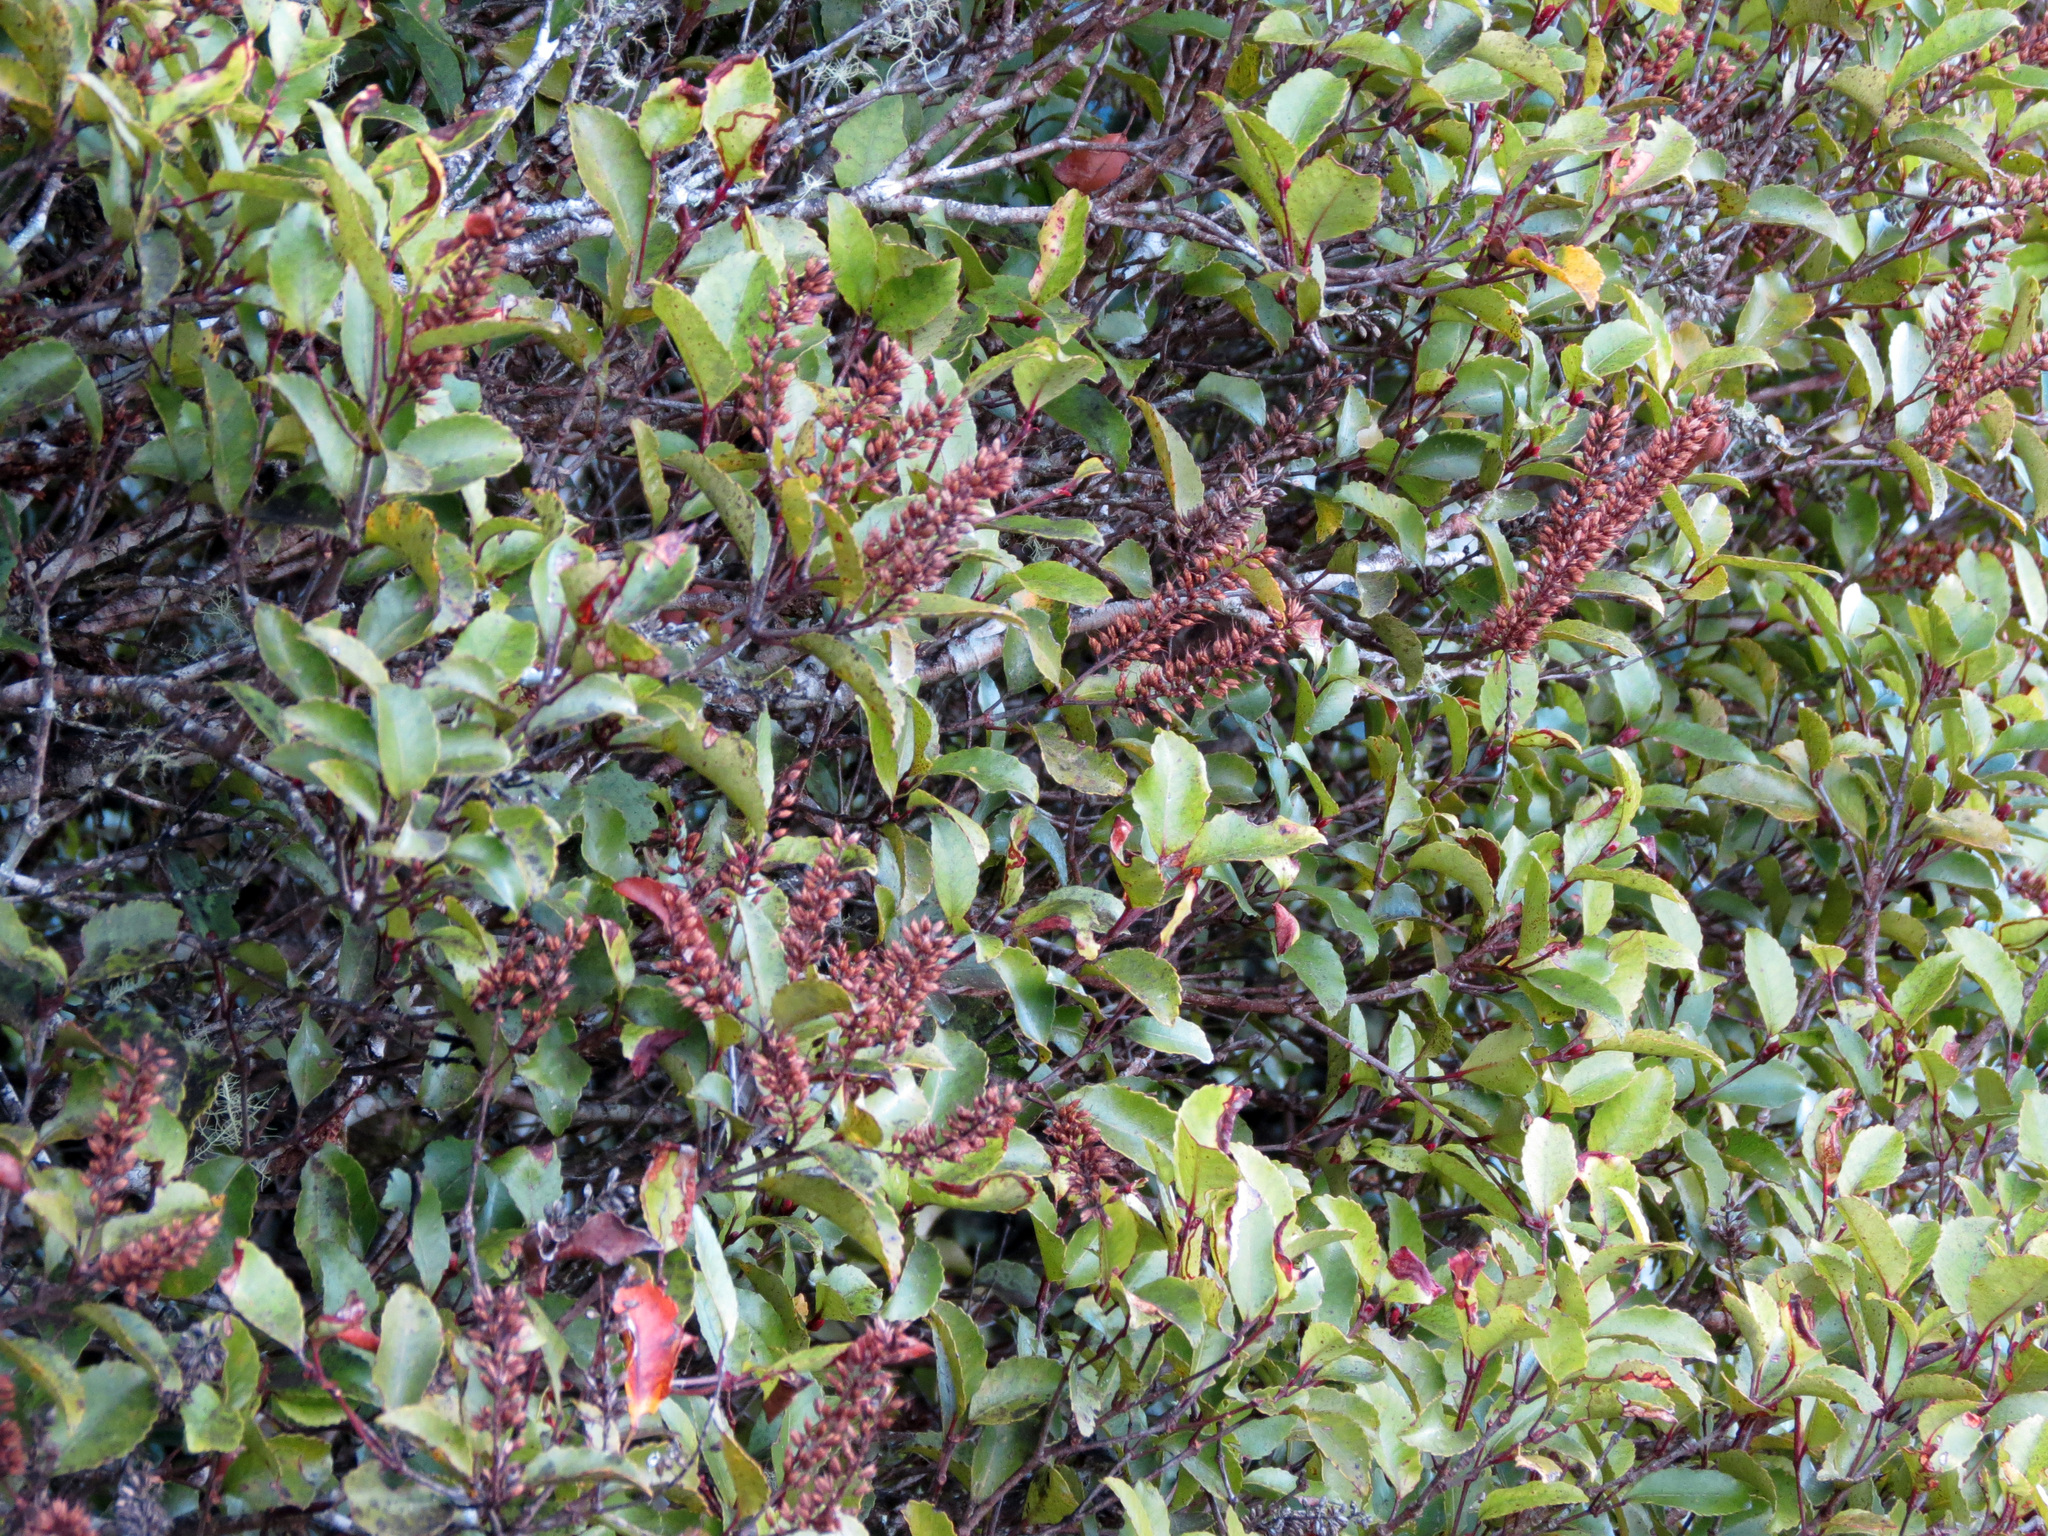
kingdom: Plantae
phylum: Tracheophyta
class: Magnoliopsida
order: Oxalidales
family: Cunoniaceae
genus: Pterophylla
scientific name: Pterophylla racemosa
